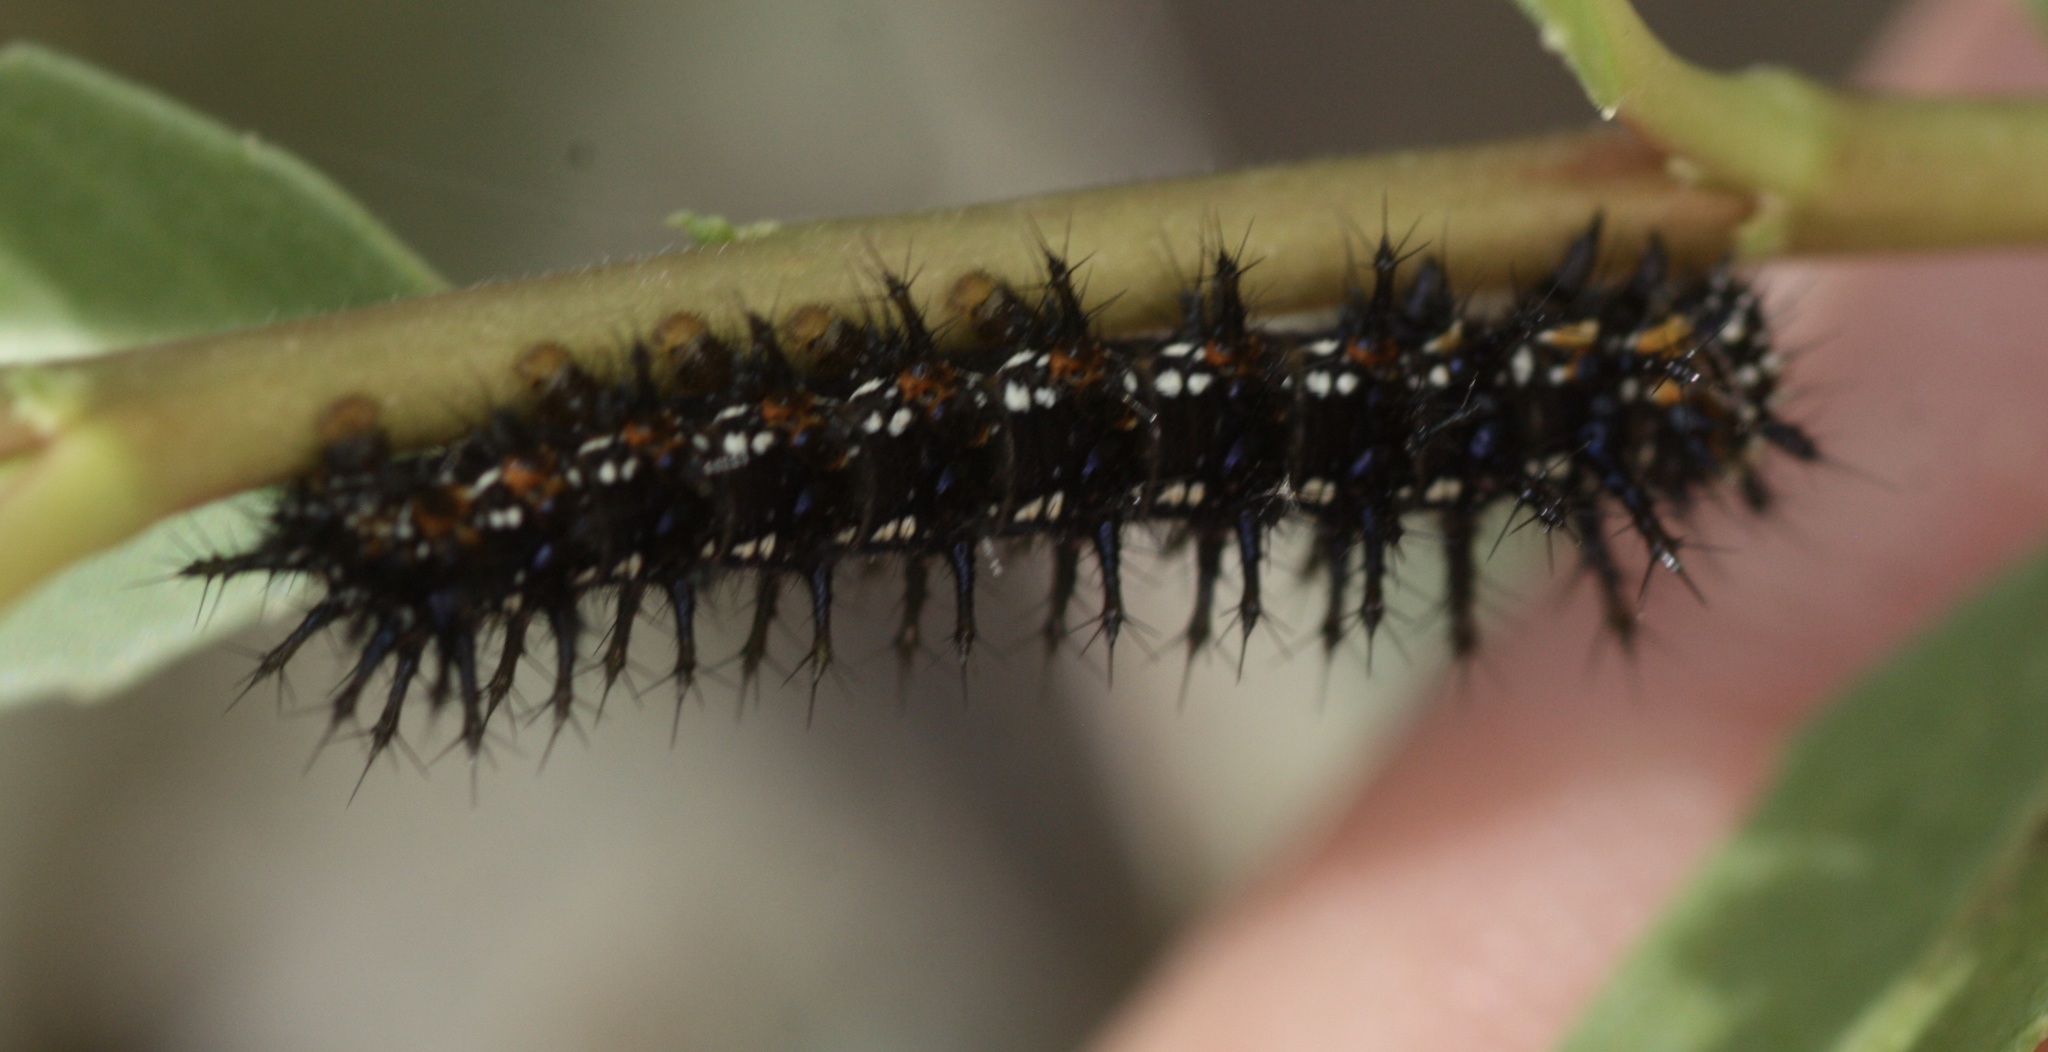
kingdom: Animalia
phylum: Arthropoda
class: Insecta
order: Lepidoptera
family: Nymphalidae
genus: Junonia
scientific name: Junonia grisea
